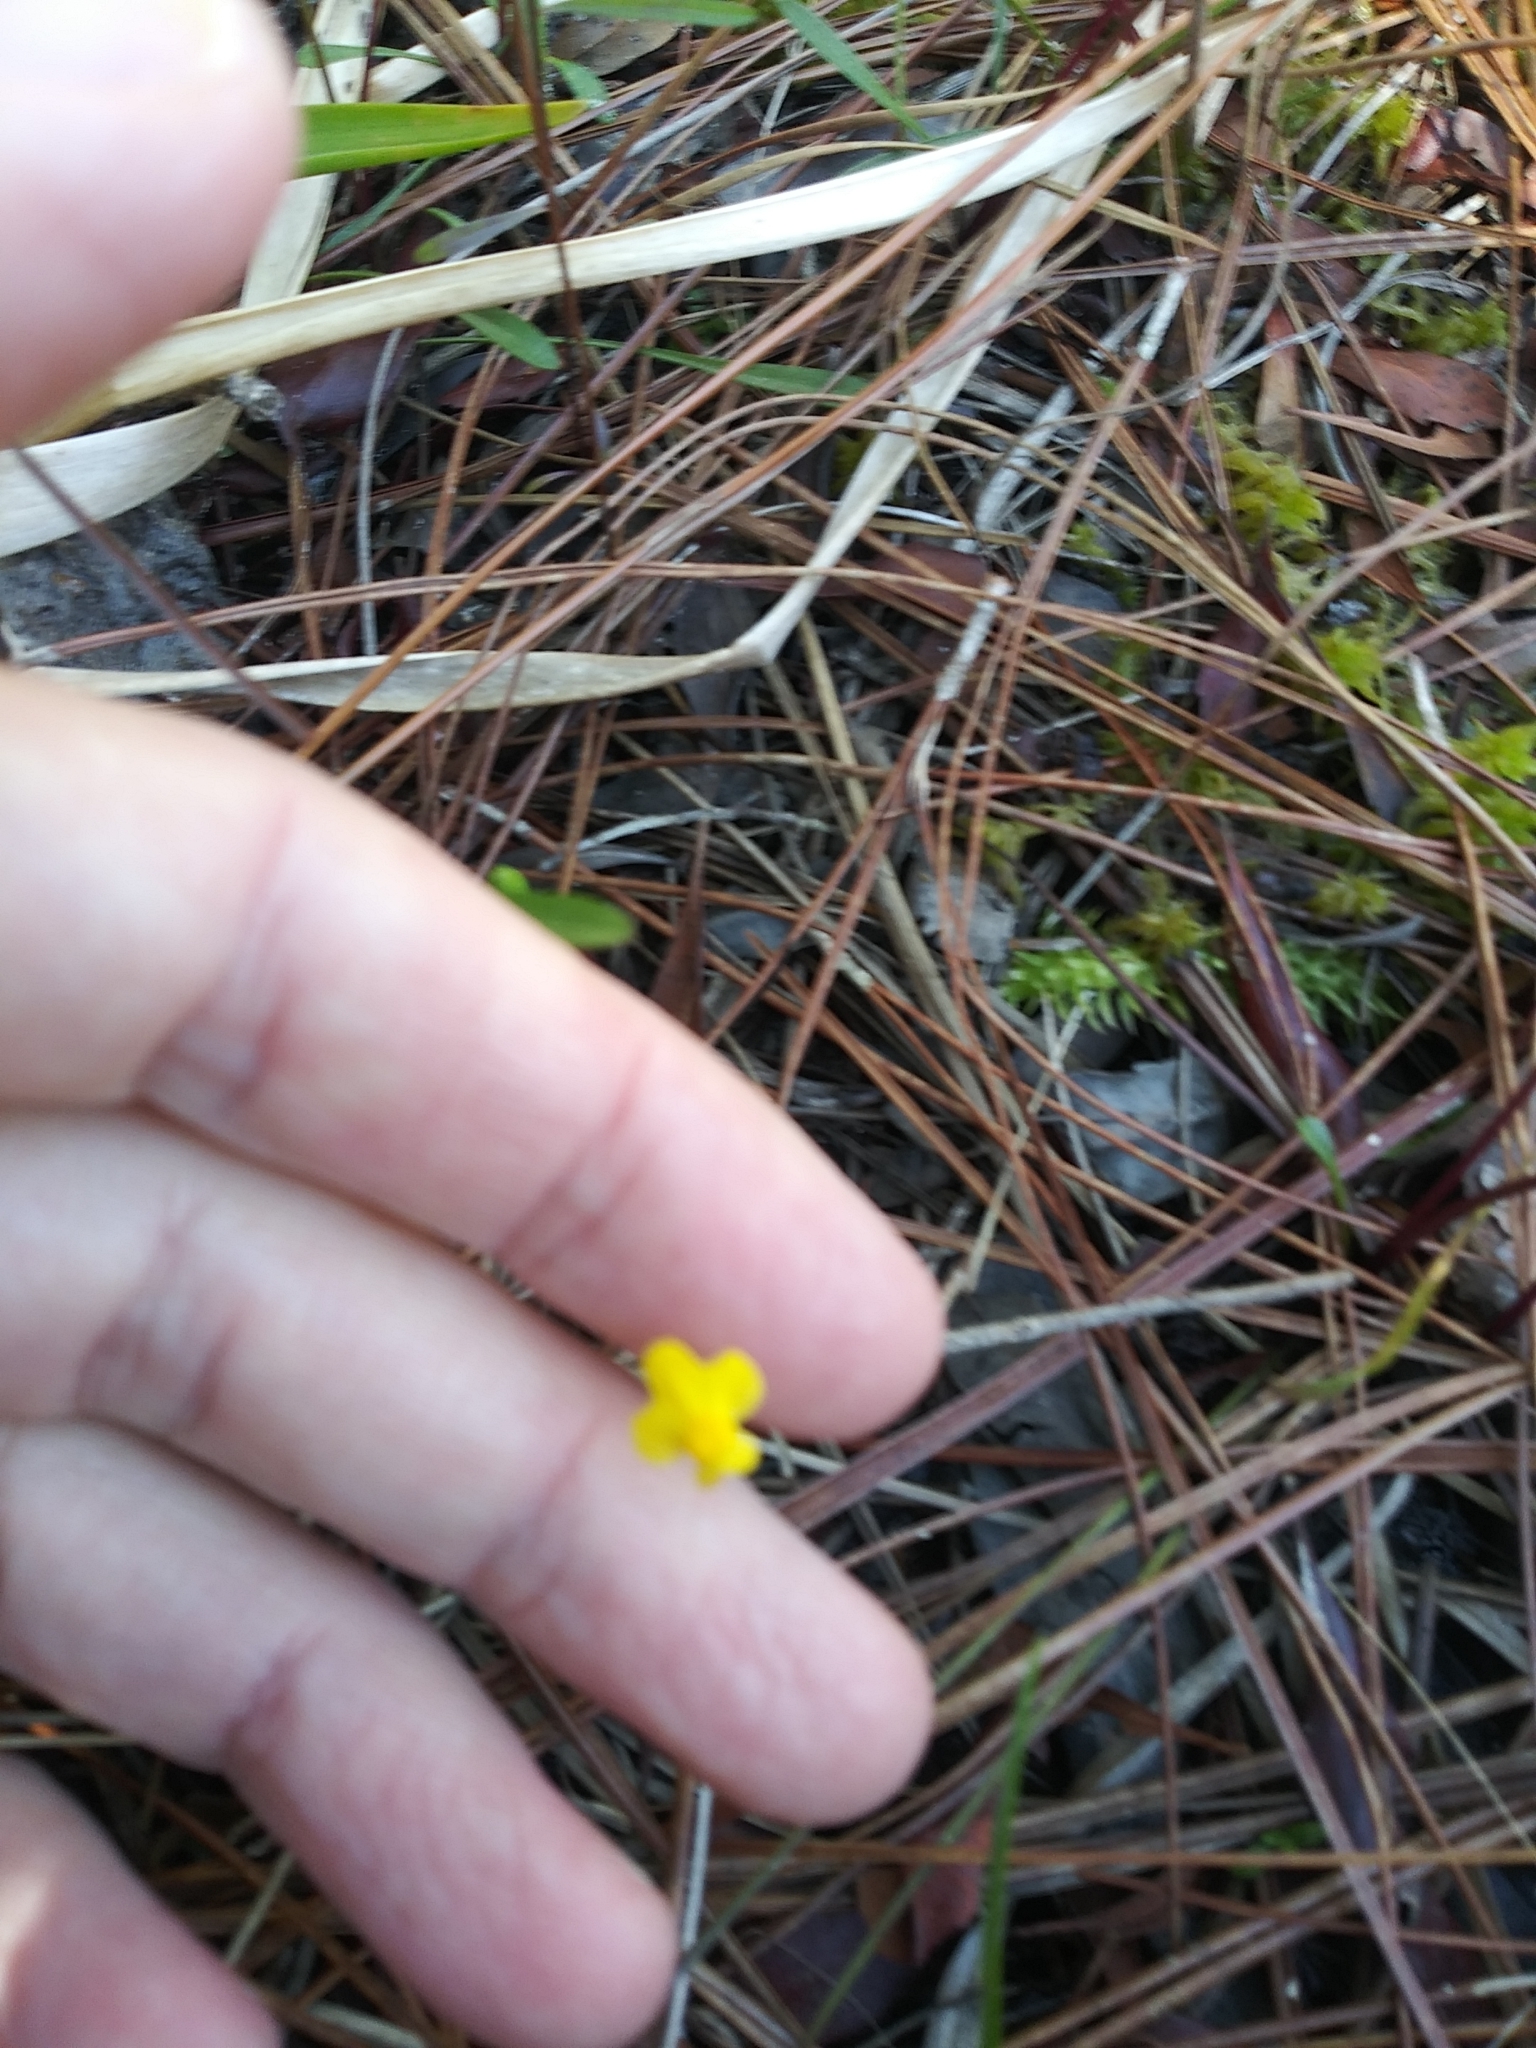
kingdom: Plantae
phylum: Tracheophyta
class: Magnoliopsida
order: Lamiales
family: Lentibulariaceae
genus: Utricularia
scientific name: Utricularia subulata
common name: Tiny bladderwort
